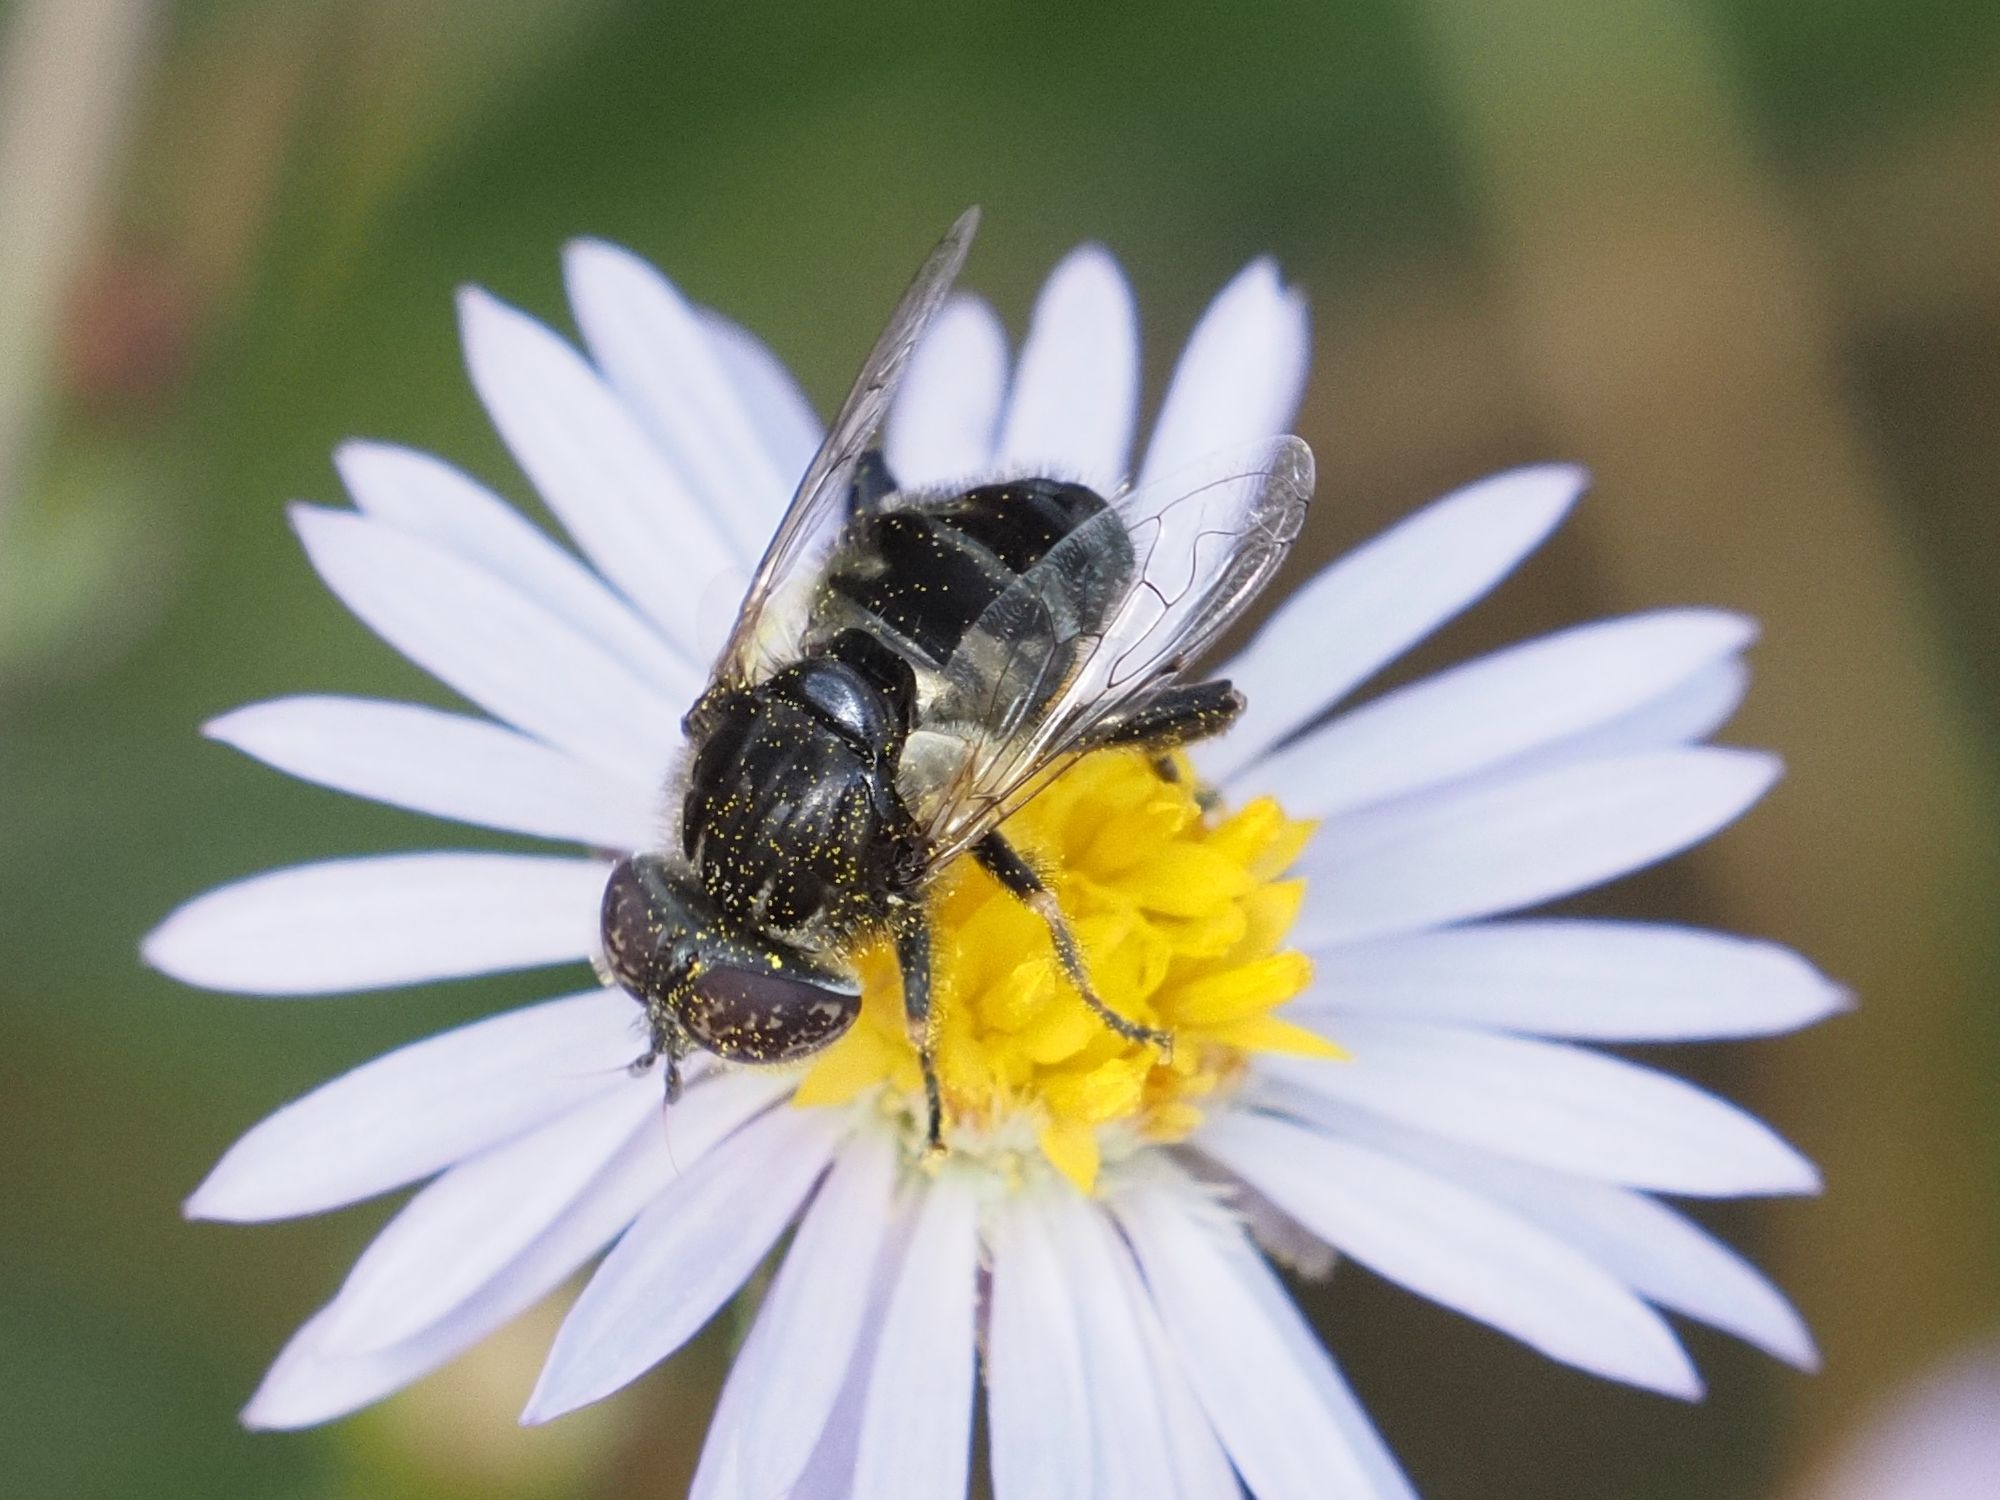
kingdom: Animalia
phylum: Arthropoda
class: Insecta
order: Diptera
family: Syrphidae
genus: Eristalinus
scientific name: Eristalinus sepulchralis
